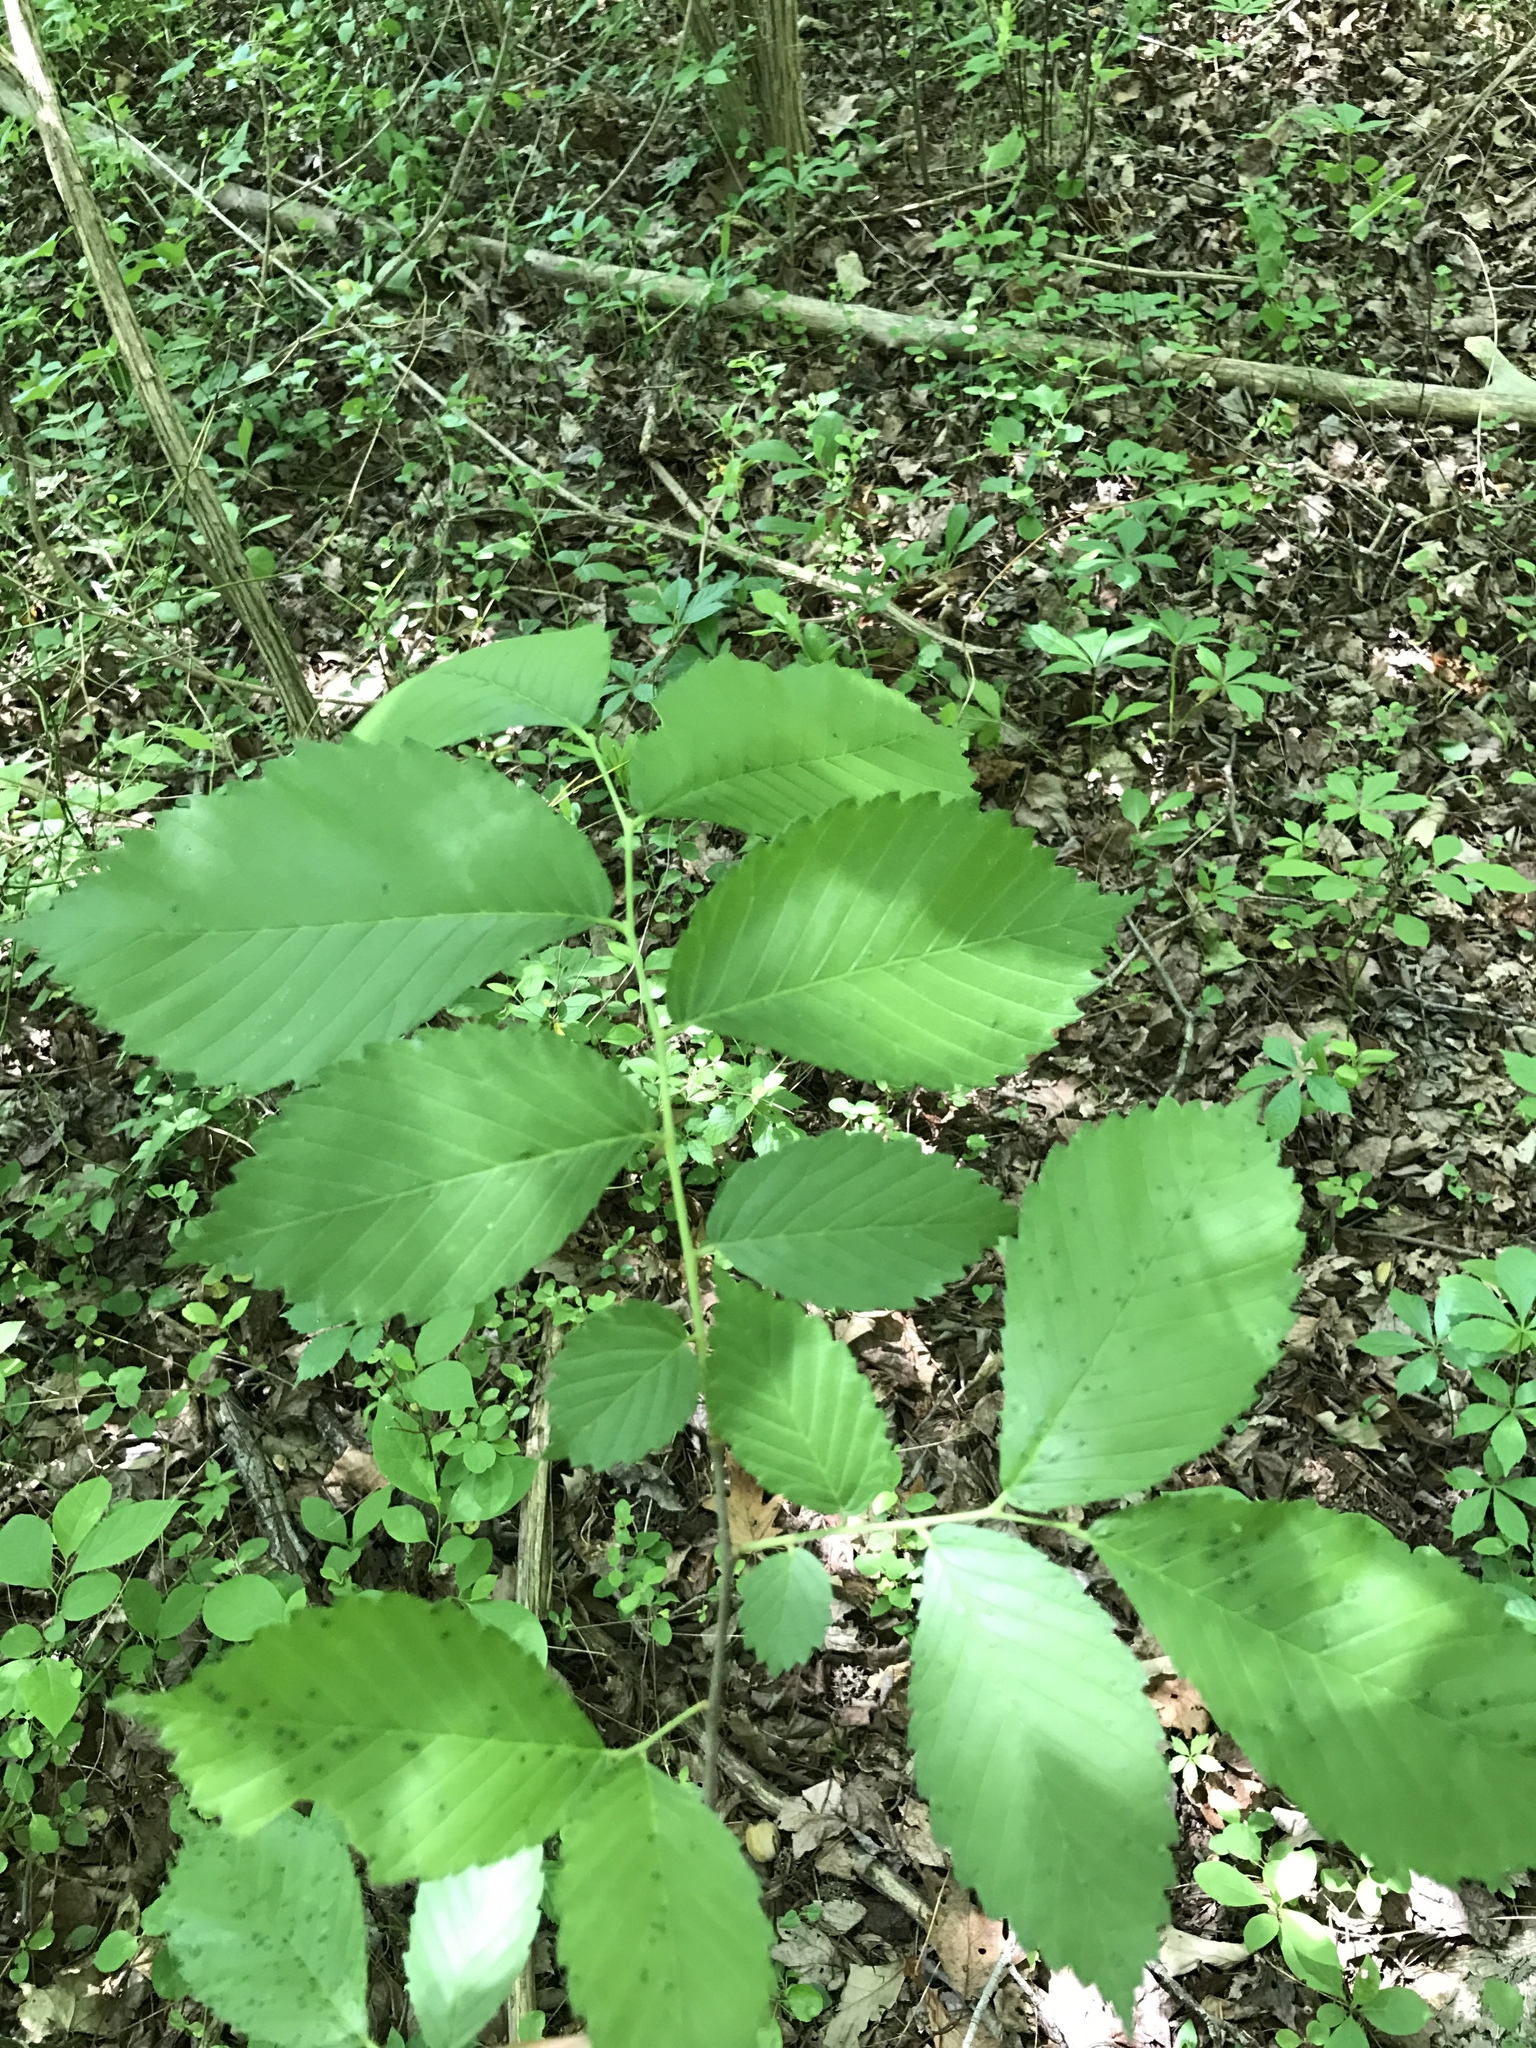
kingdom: Plantae
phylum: Tracheophyta
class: Magnoliopsida
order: Rosales
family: Ulmaceae
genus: Ulmus
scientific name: Ulmus americana
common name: American elm
